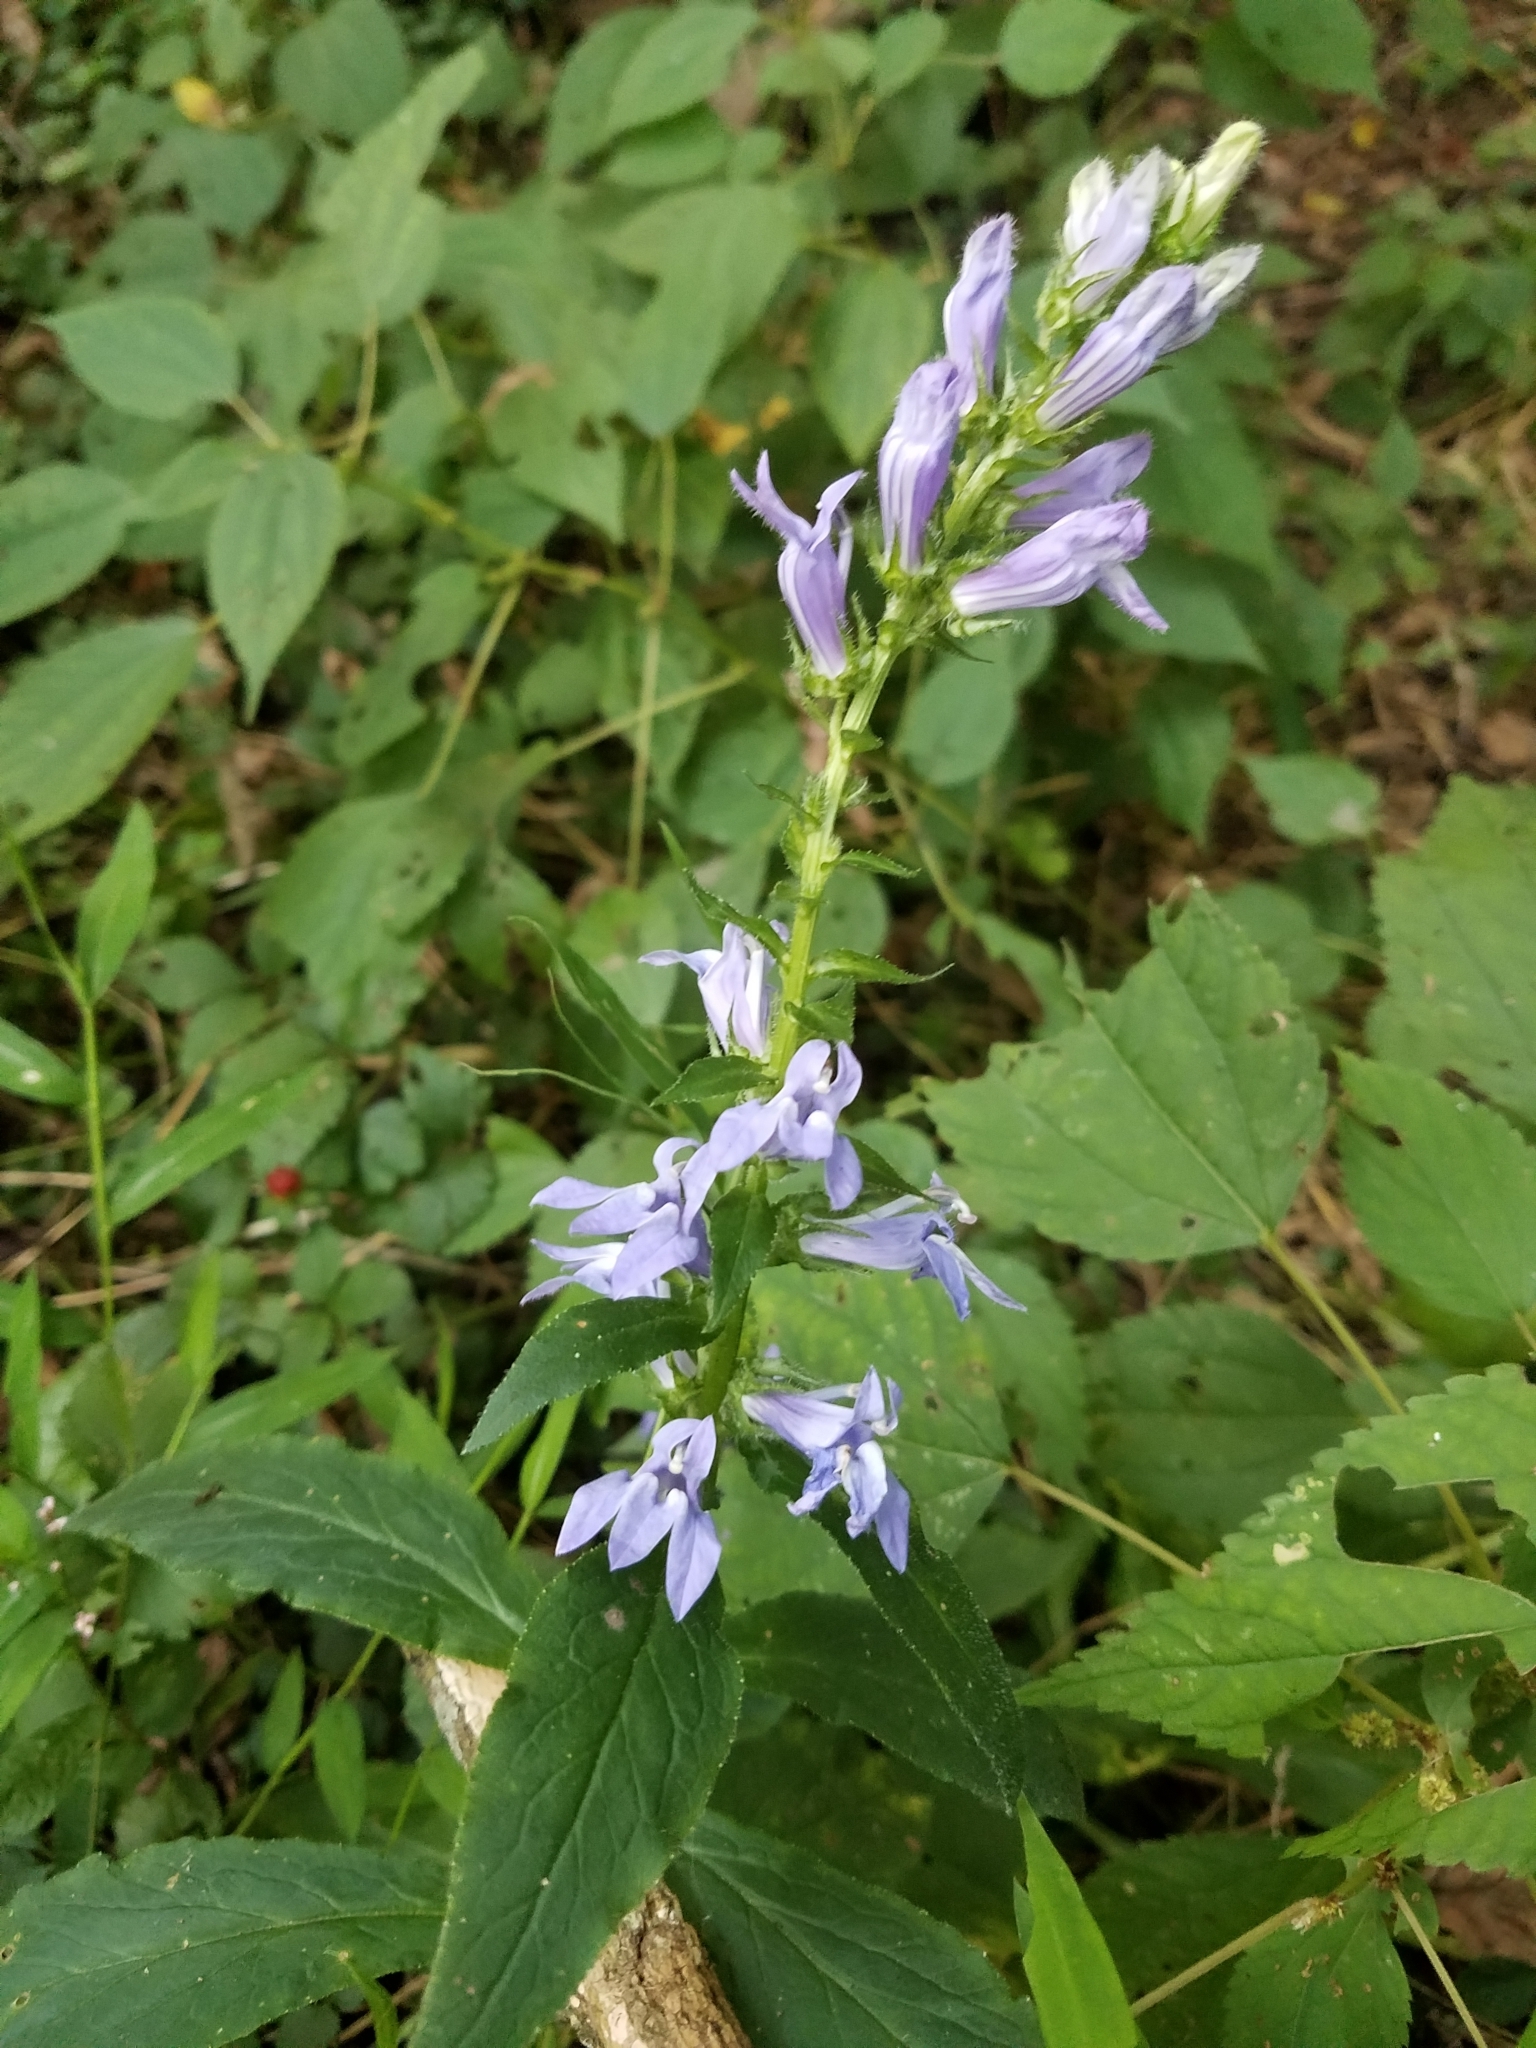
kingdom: Plantae
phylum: Tracheophyta
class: Magnoliopsida
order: Asterales
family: Campanulaceae
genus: Lobelia
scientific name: Lobelia siphilitica
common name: Great lobelia
